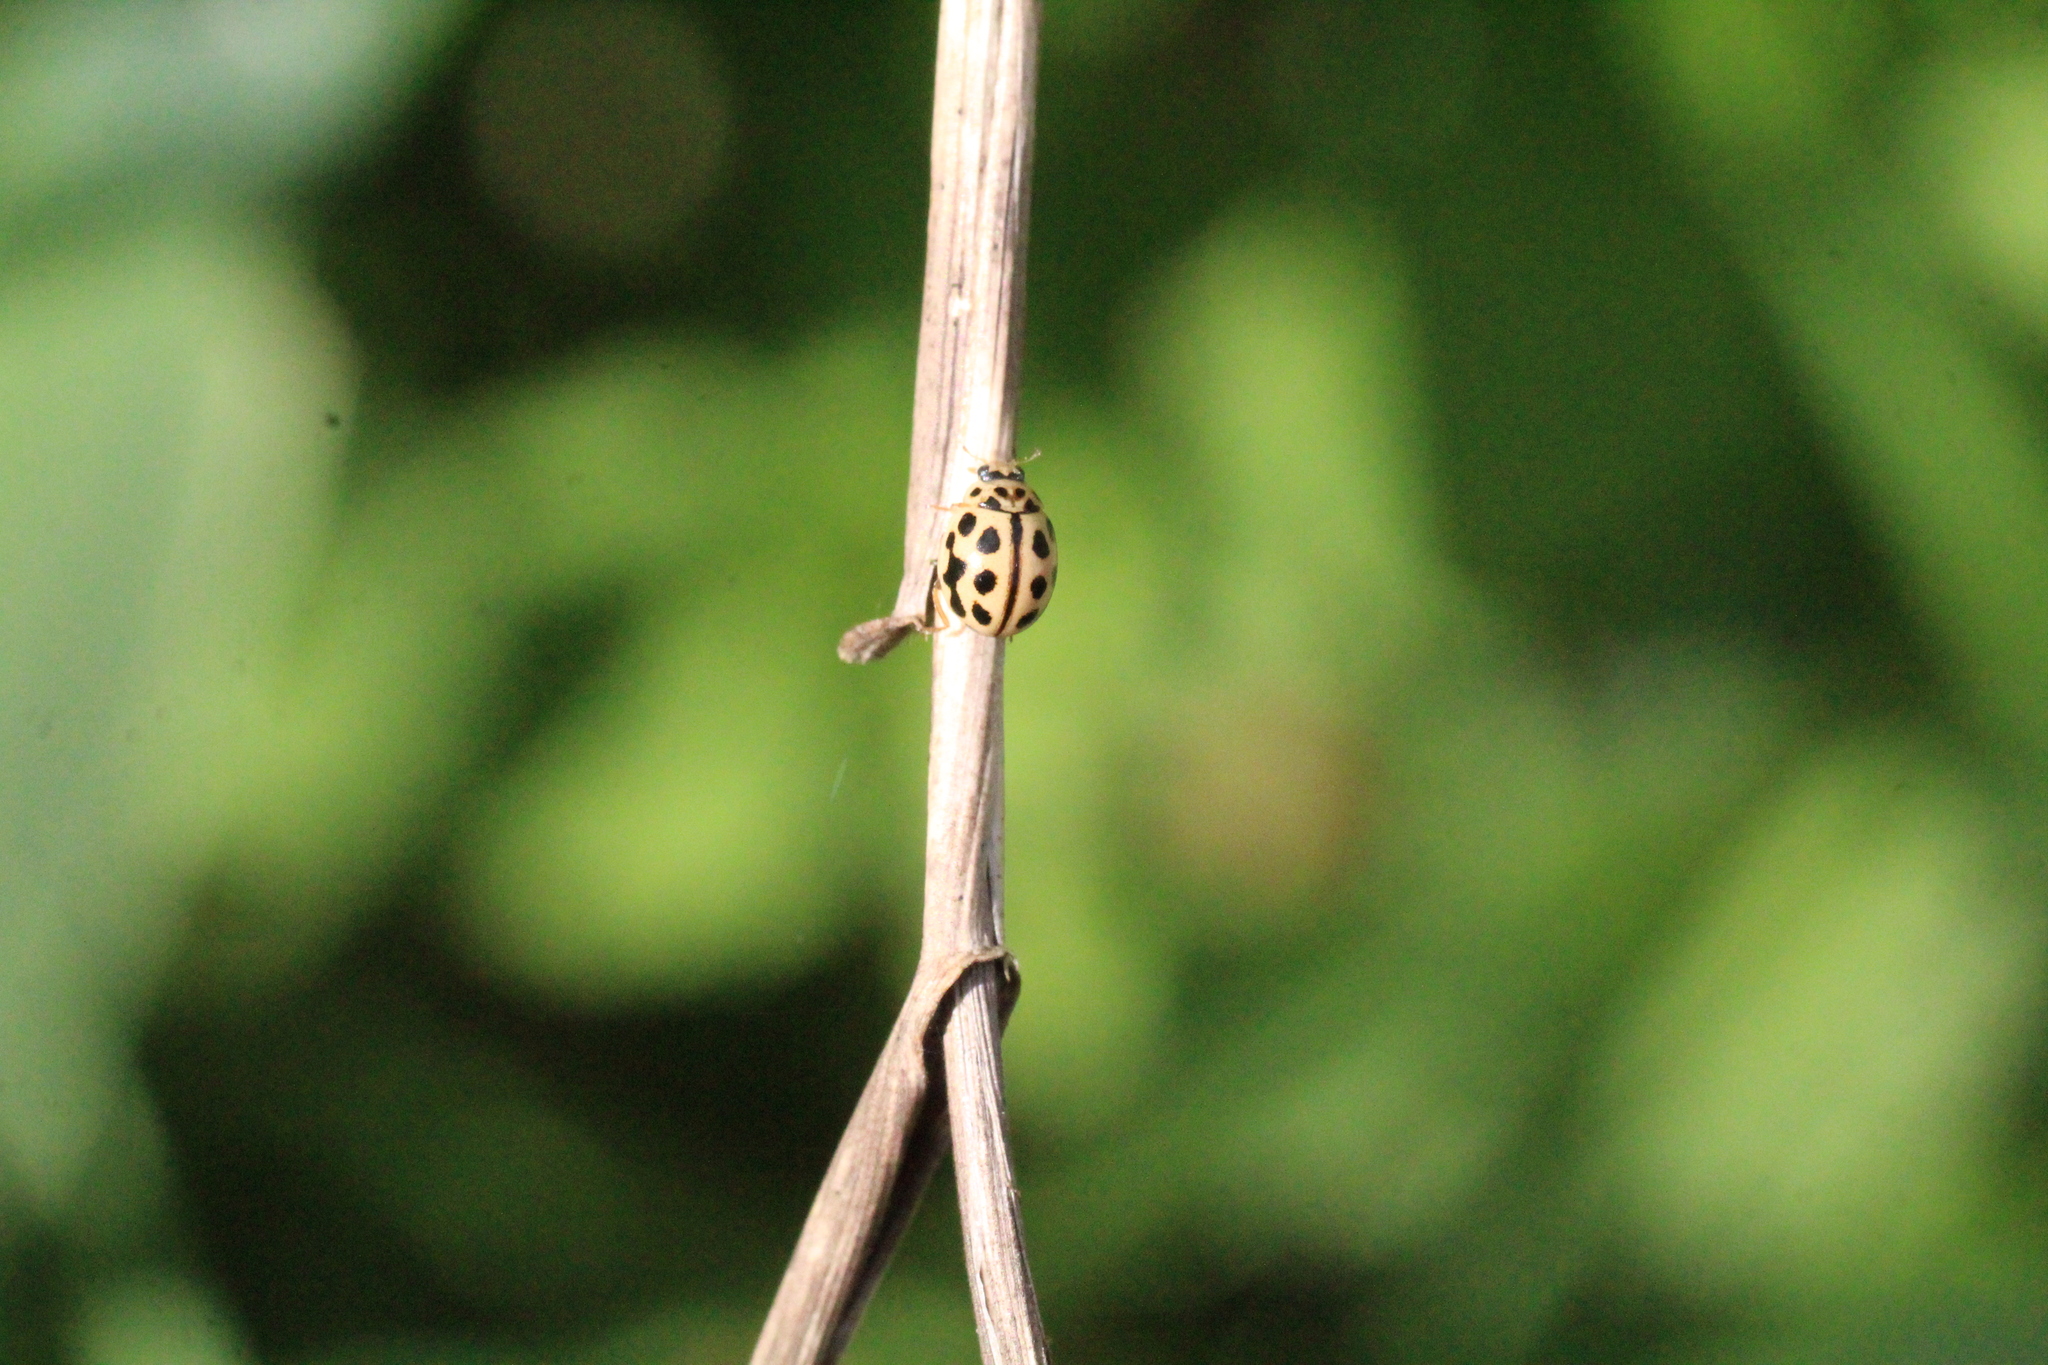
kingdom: Animalia
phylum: Arthropoda
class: Insecta
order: Coleoptera
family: Coccinellidae
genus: Tytthaspis
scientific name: Tytthaspis sedecimpunctata
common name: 16-spot ladybird
